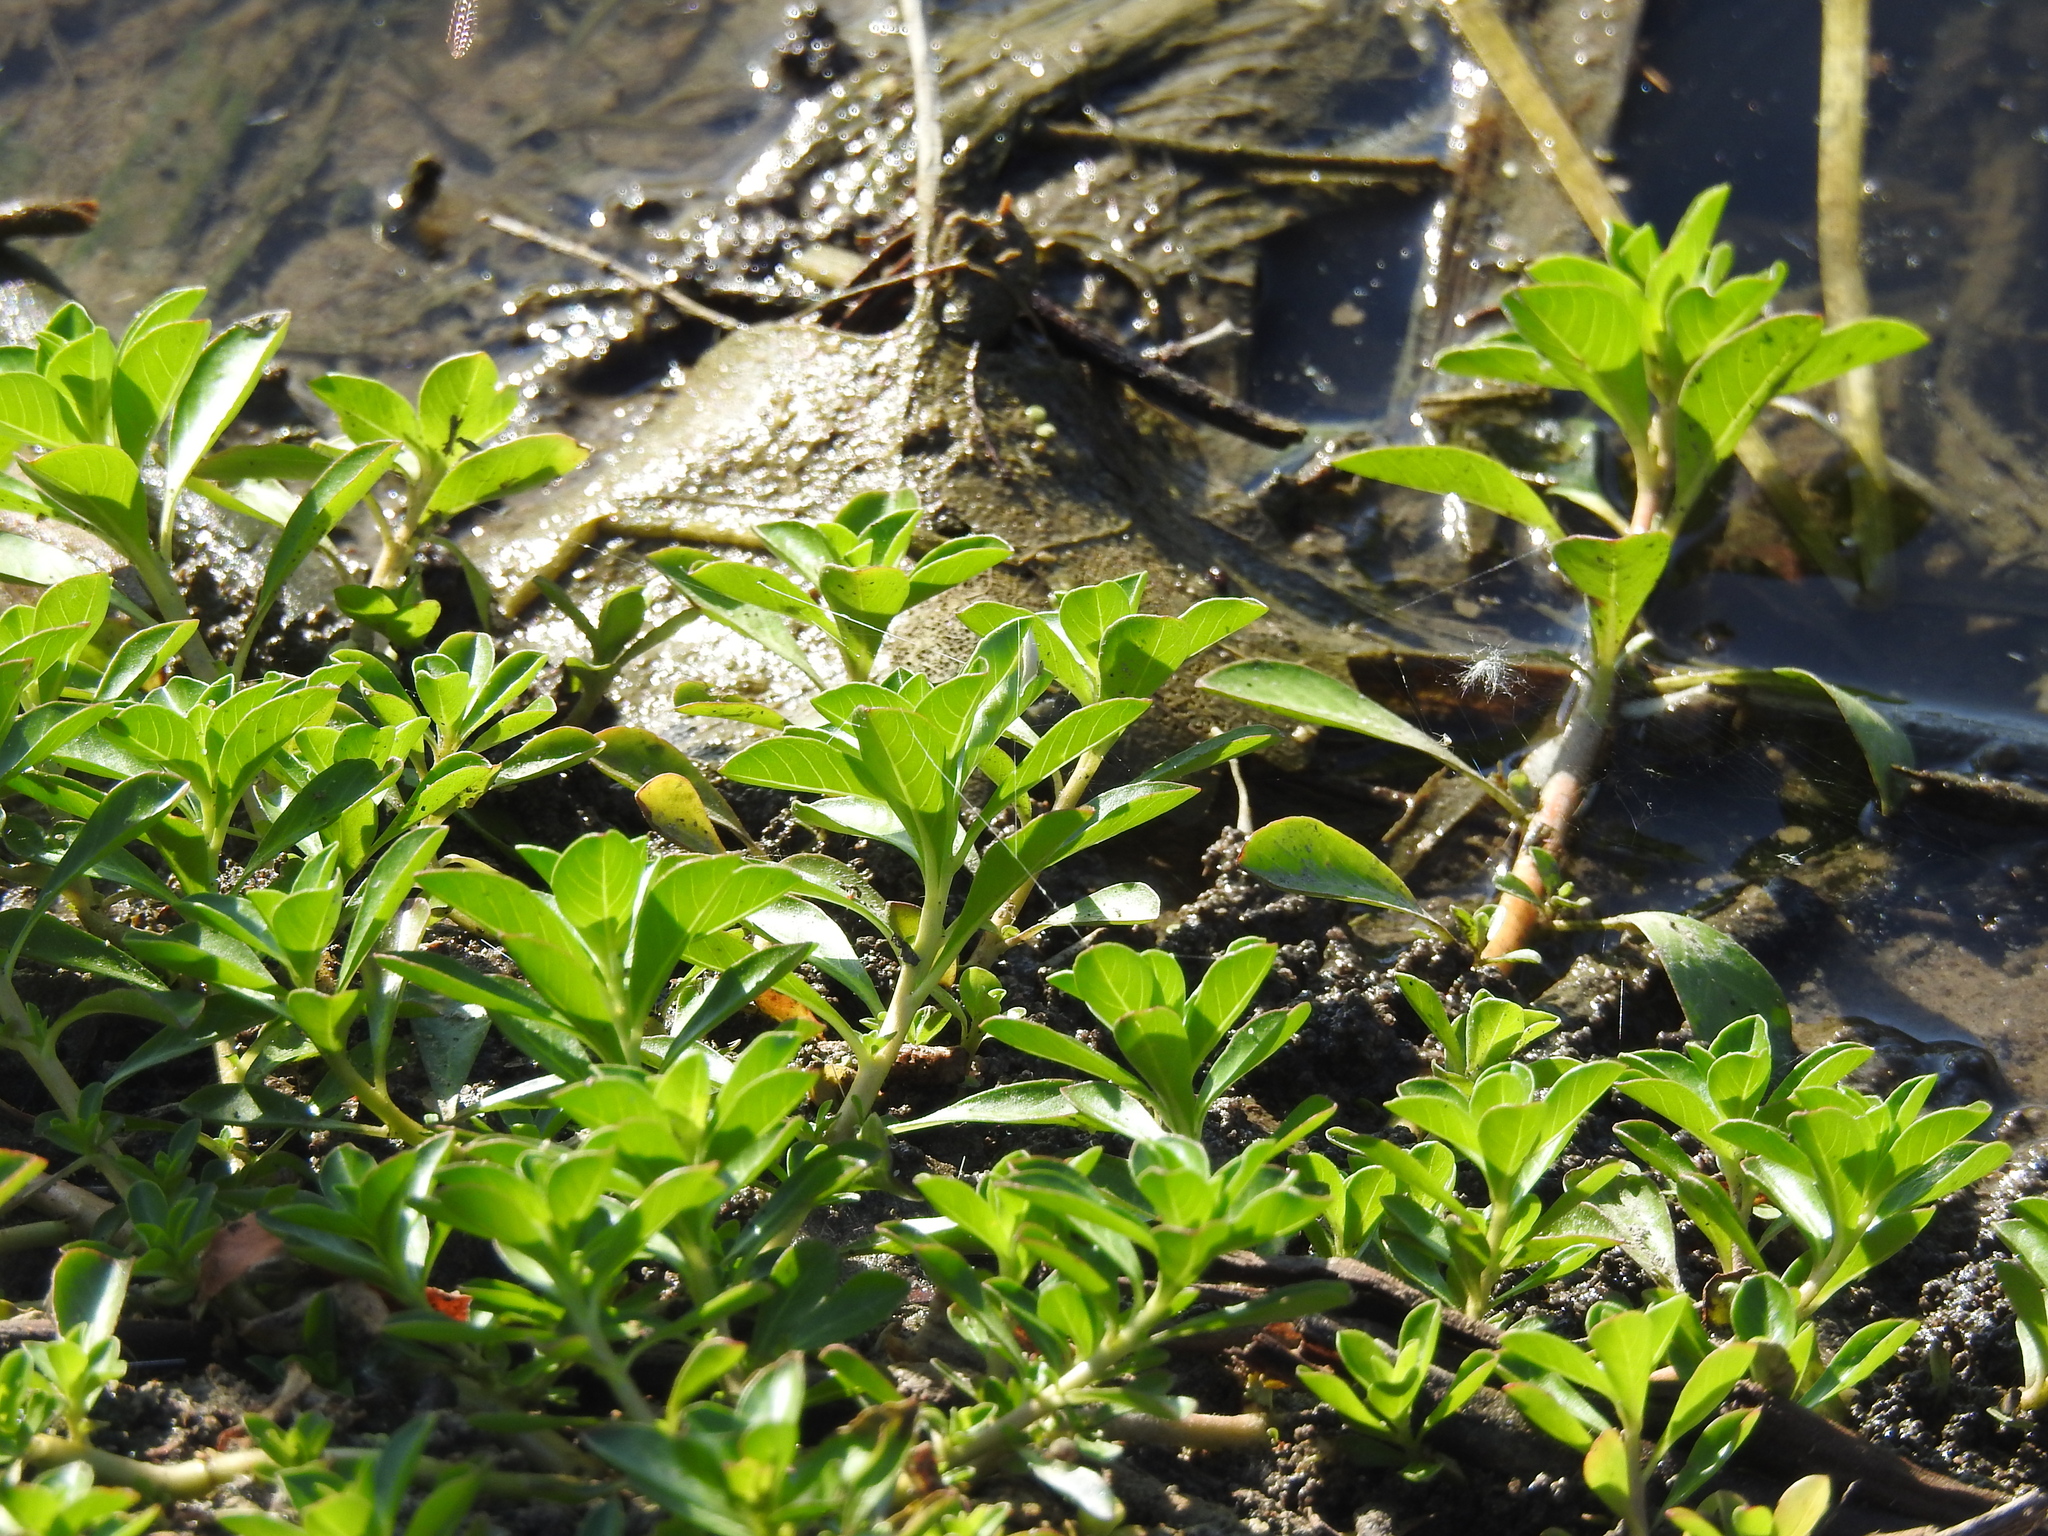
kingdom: Plantae
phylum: Tracheophyta
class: Magnoliopsida
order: Myrtales
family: Onagraceae
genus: Ludwigia
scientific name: Ludwigia peploides
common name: Floating primrose-willow
